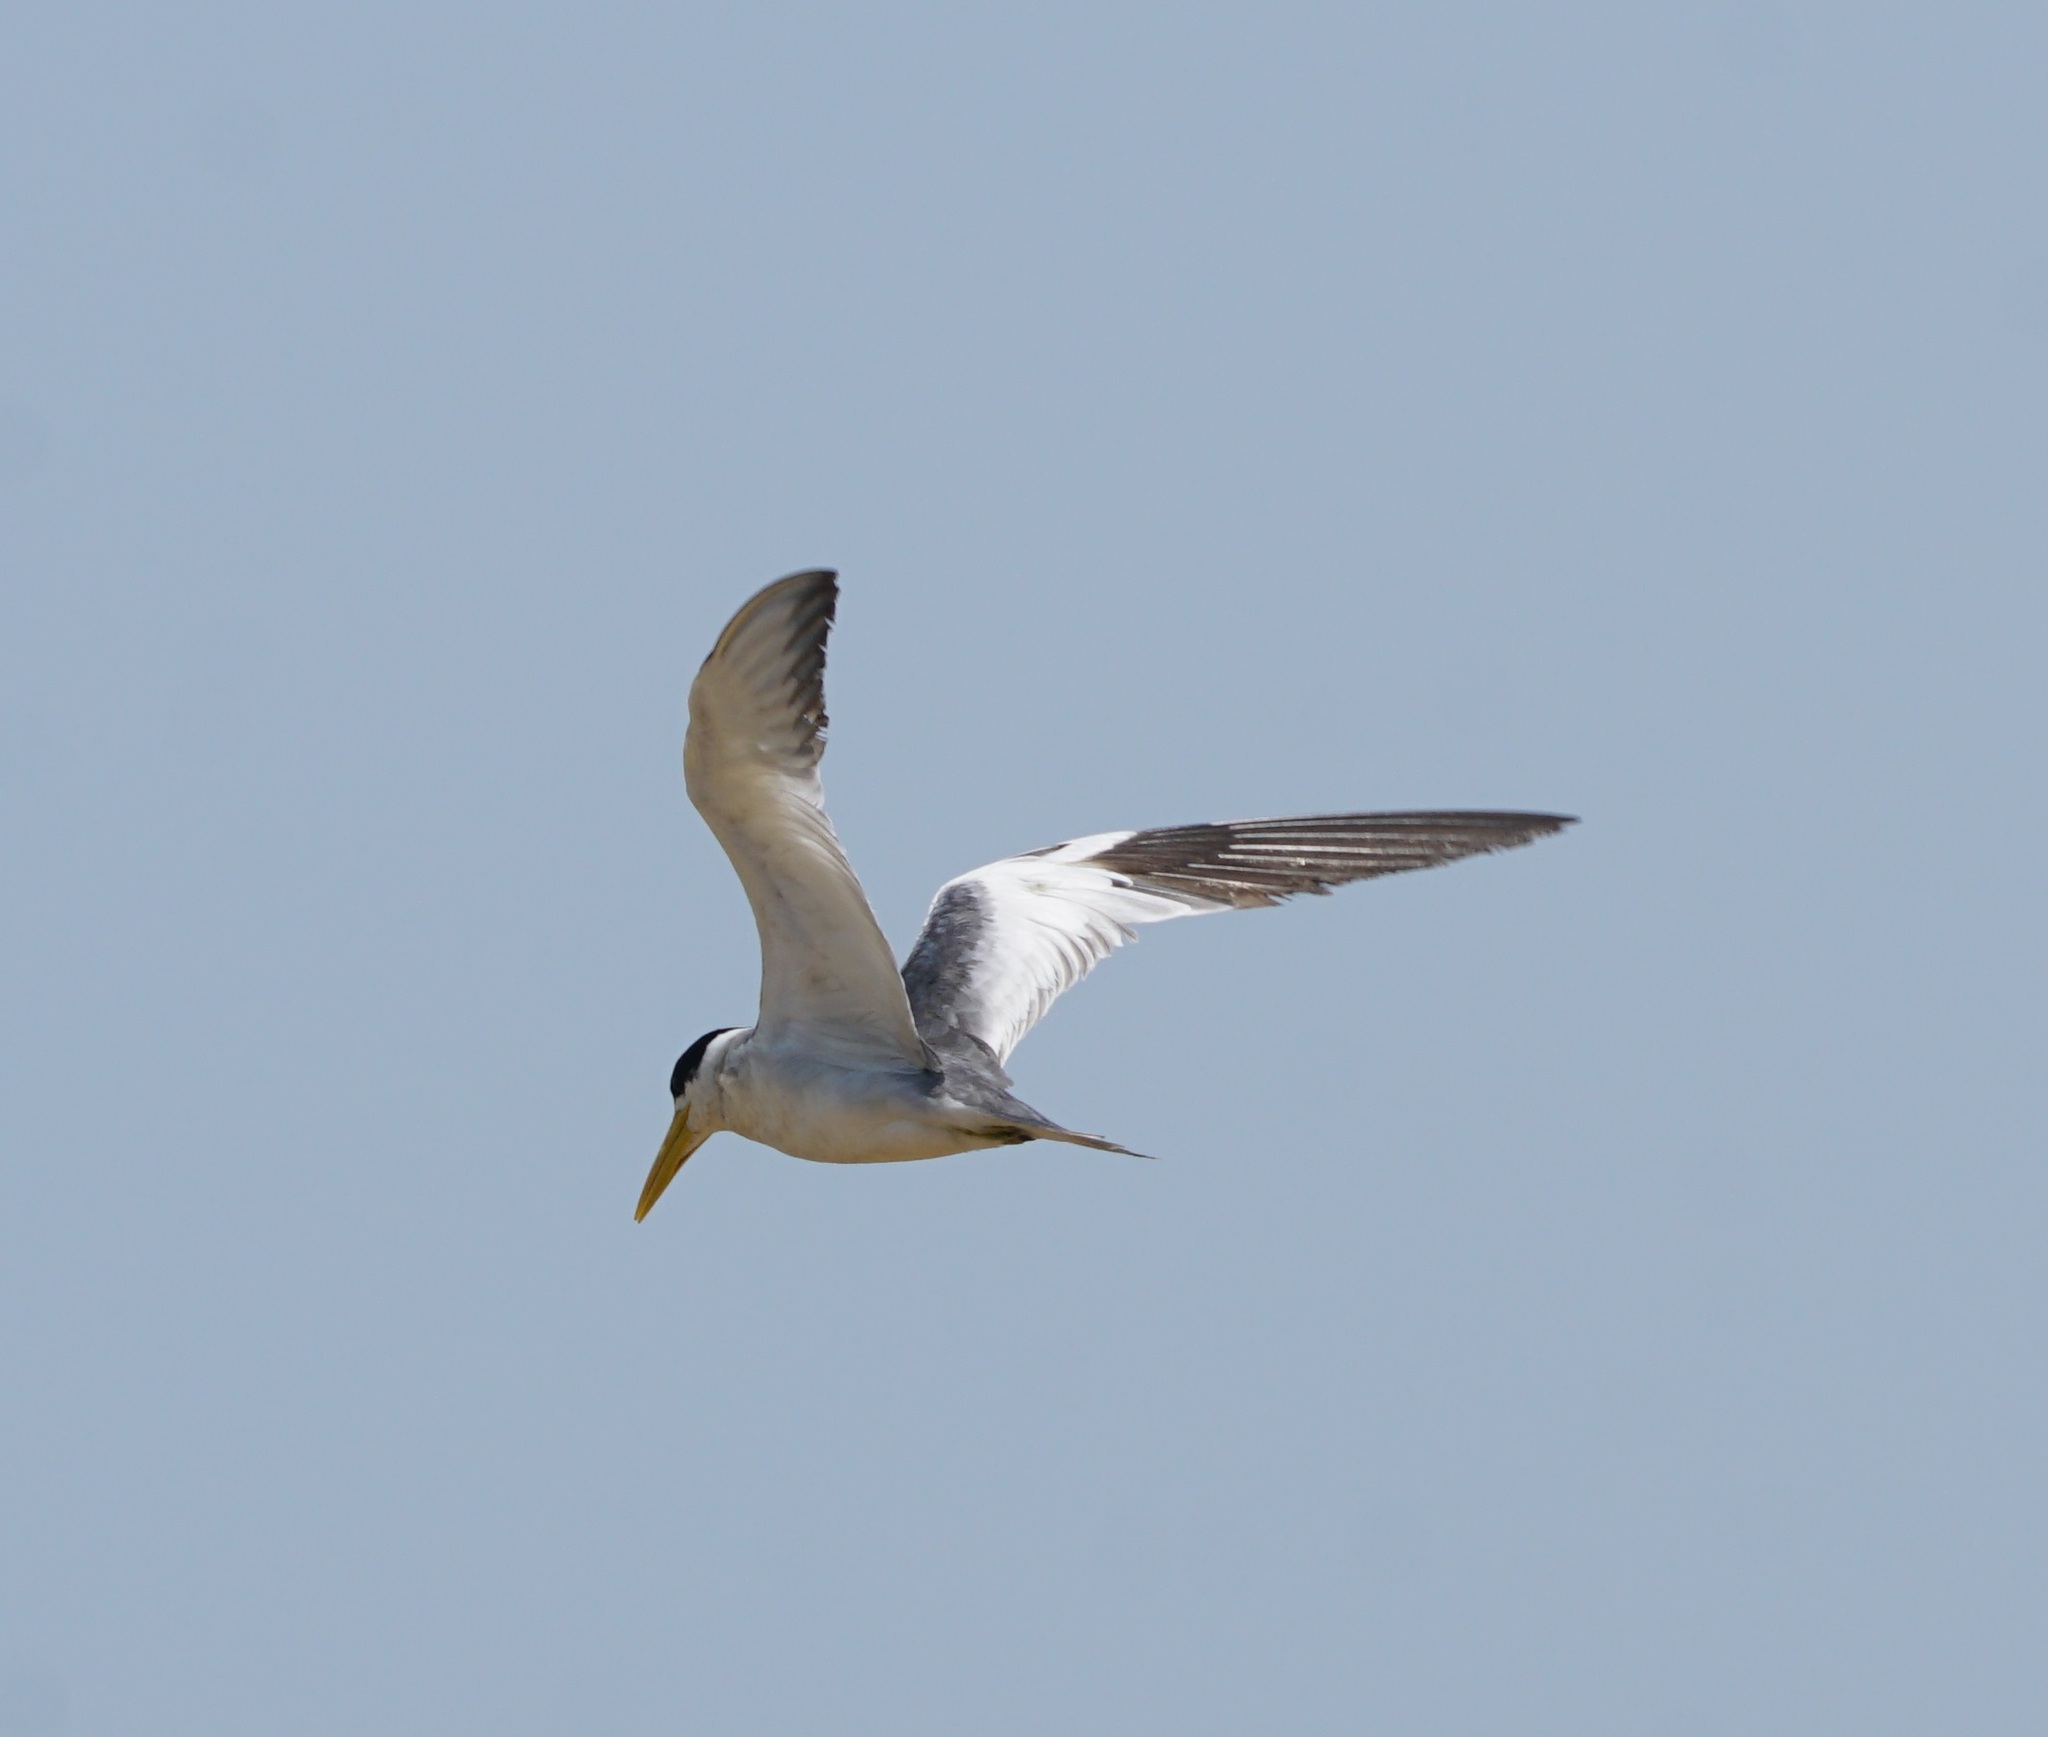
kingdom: Animalia
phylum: Chordata
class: Aves
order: Charadriiformes
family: Laridae
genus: Phaetusa
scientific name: Phaetusa simplex
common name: Large-billed tern
